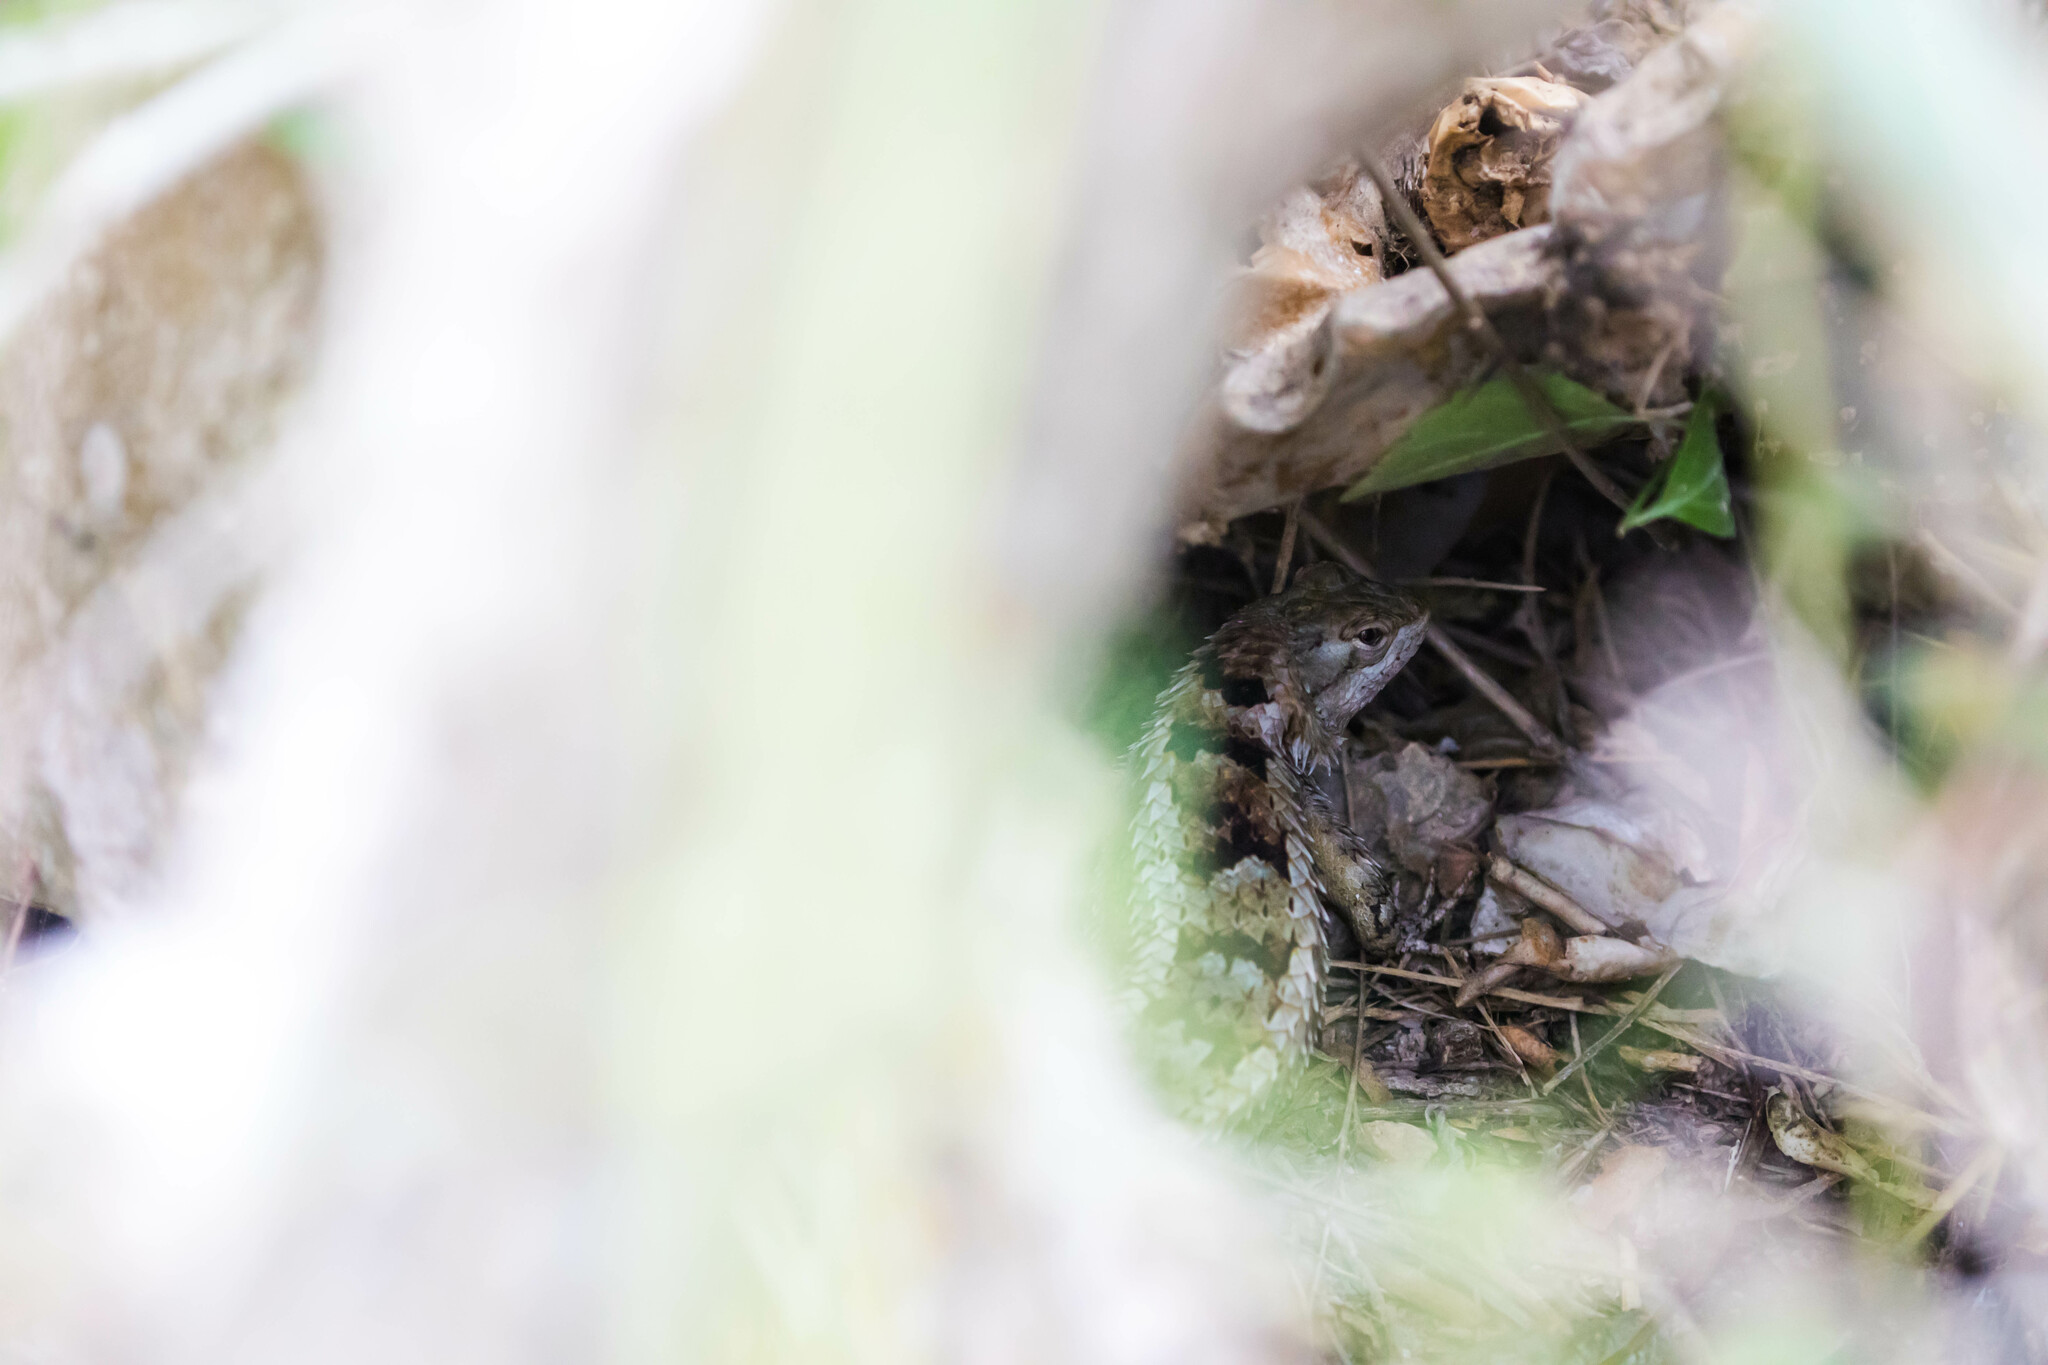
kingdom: Animalia
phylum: Chordata
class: Squamata
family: Phrynosomatidae
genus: Sceloporus
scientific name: Sceloporus olivaceus
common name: Texas spiny lizard
